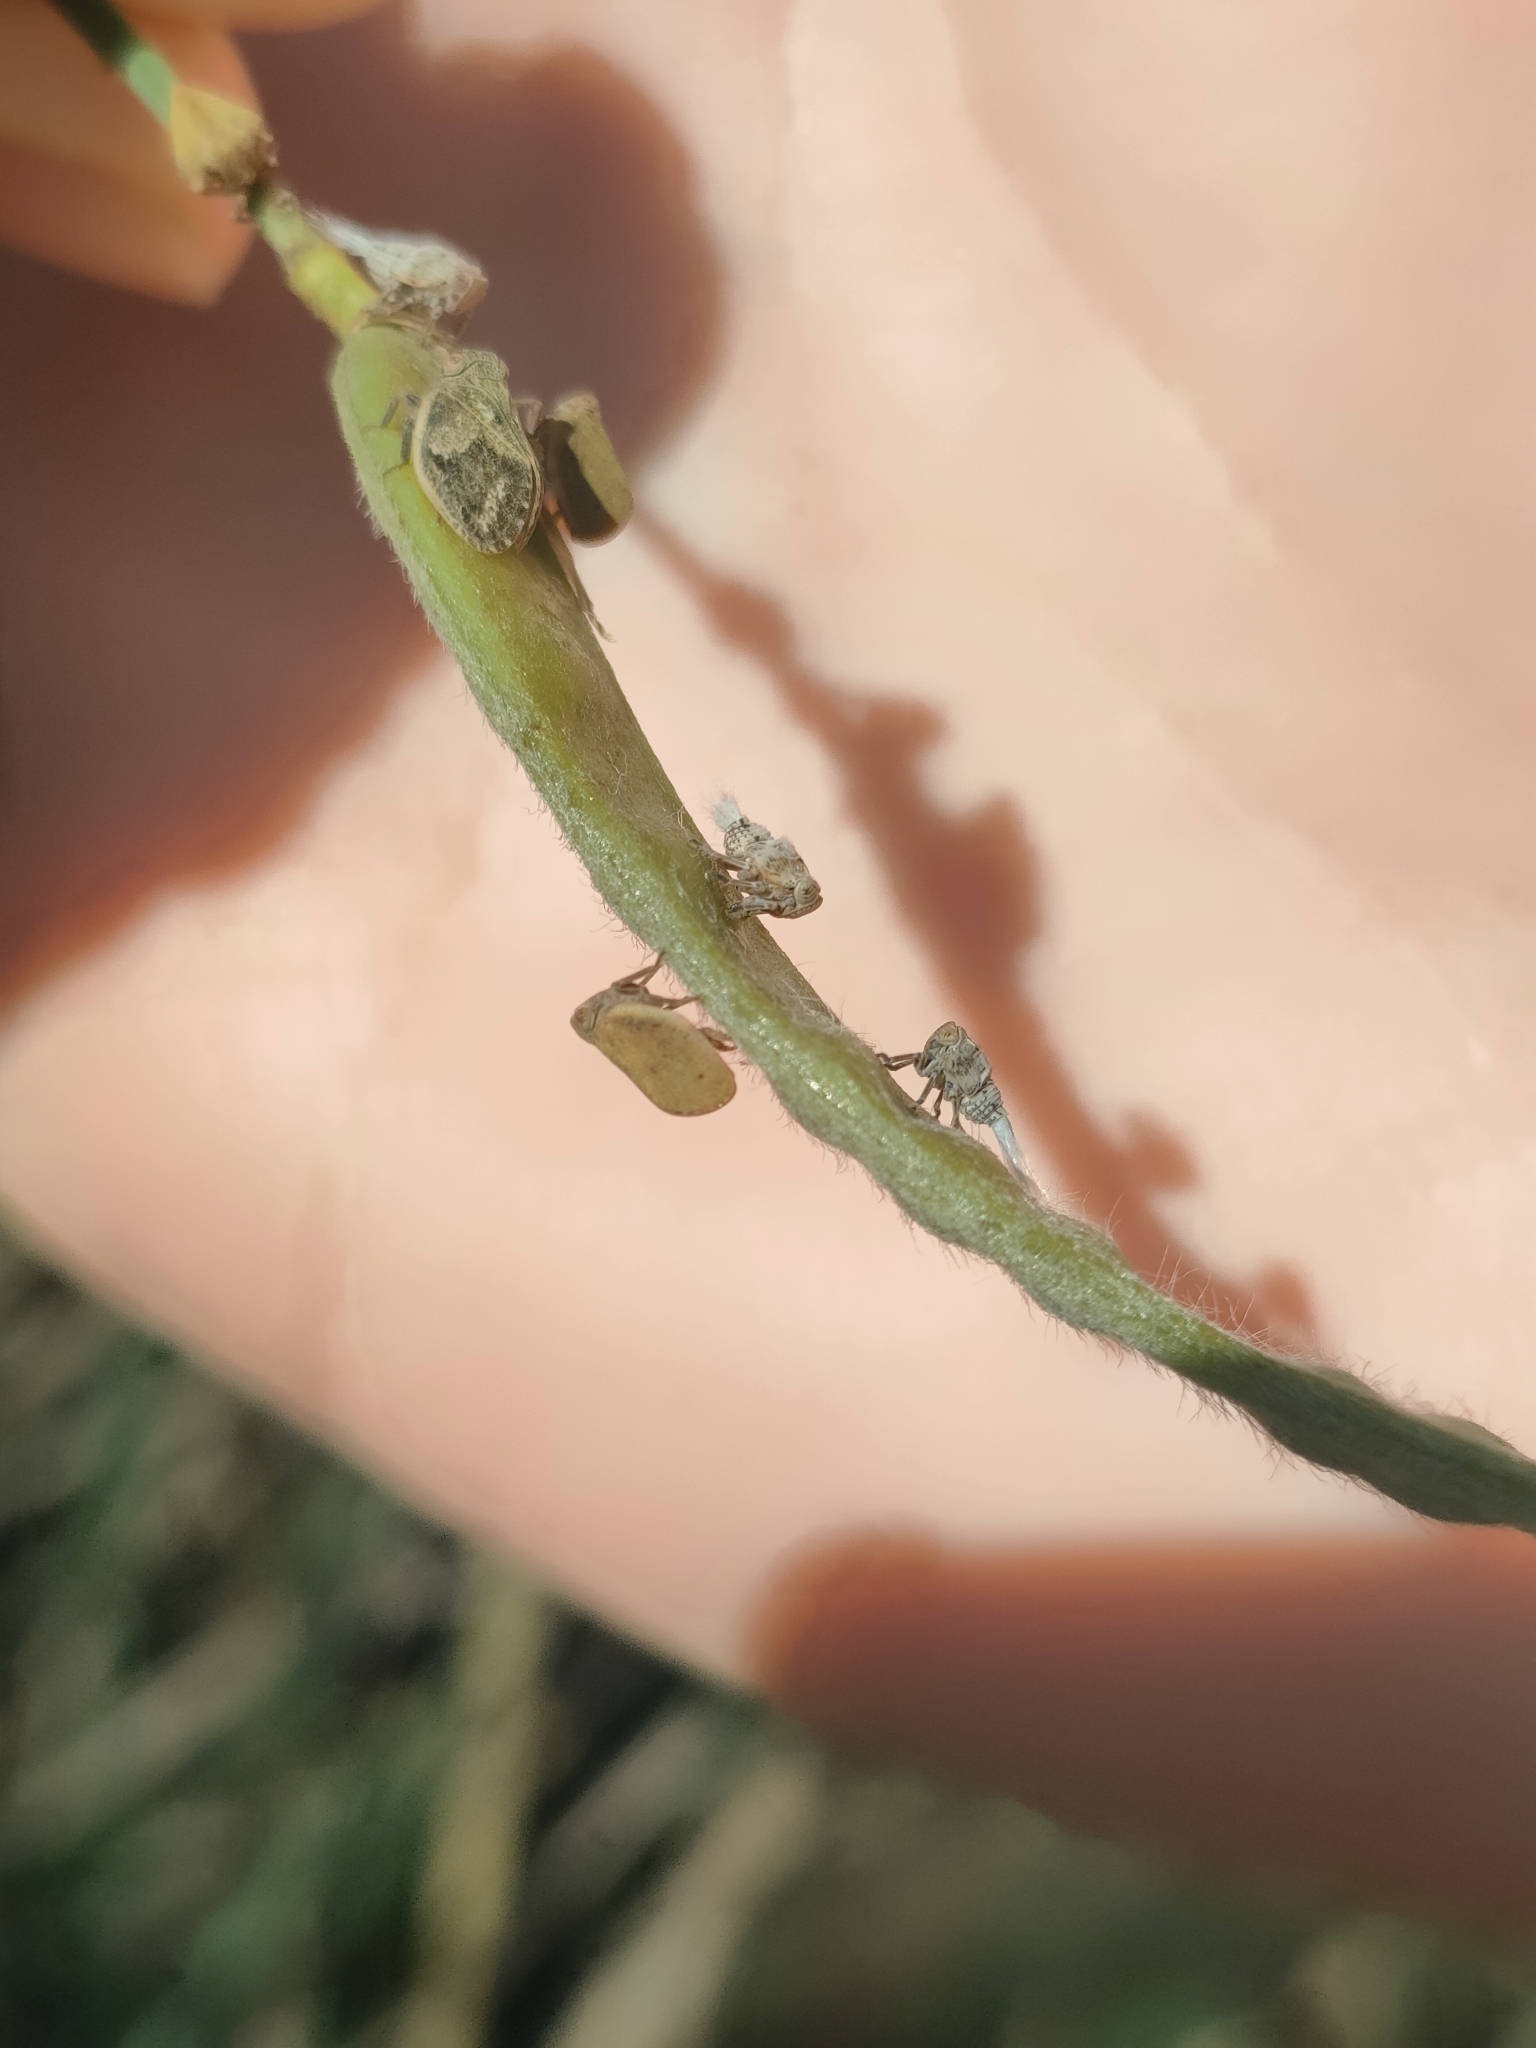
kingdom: Animalia
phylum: Arthropoda
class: Insecta
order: Hemiptera
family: Issidae
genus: Agalmatium
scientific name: Agalmatium bilobum
